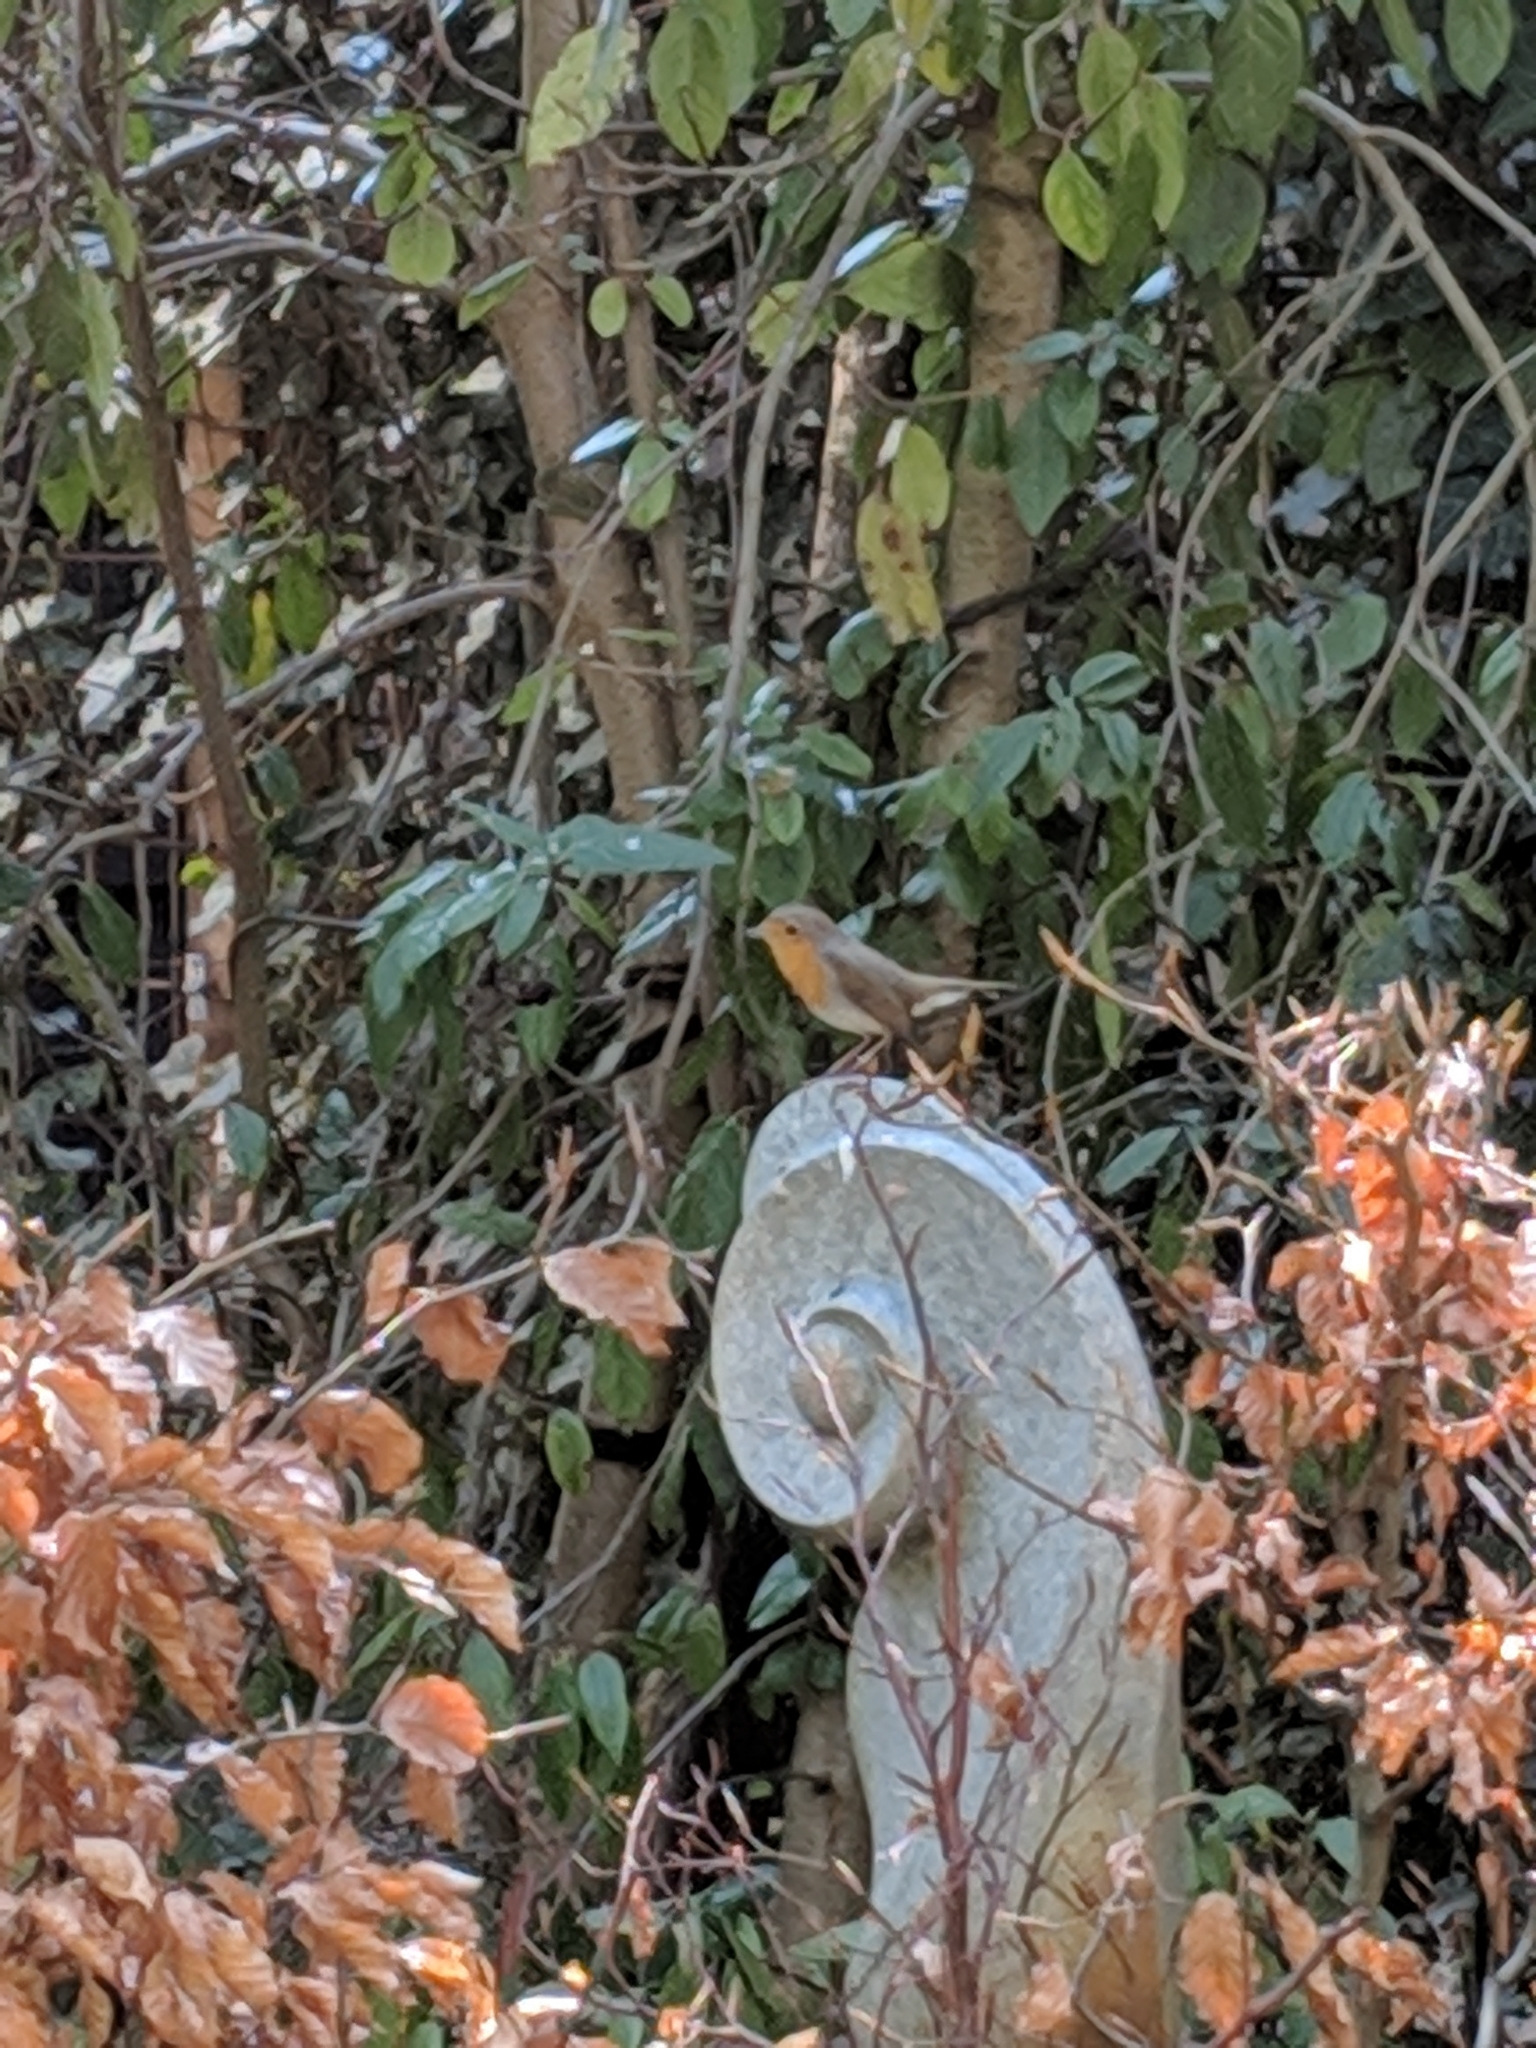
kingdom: Animalia
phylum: Chordata
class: Aves
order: Passeriformes
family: Muscicapidae
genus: Erithacus
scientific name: Erithacus rubecula
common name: European robin
